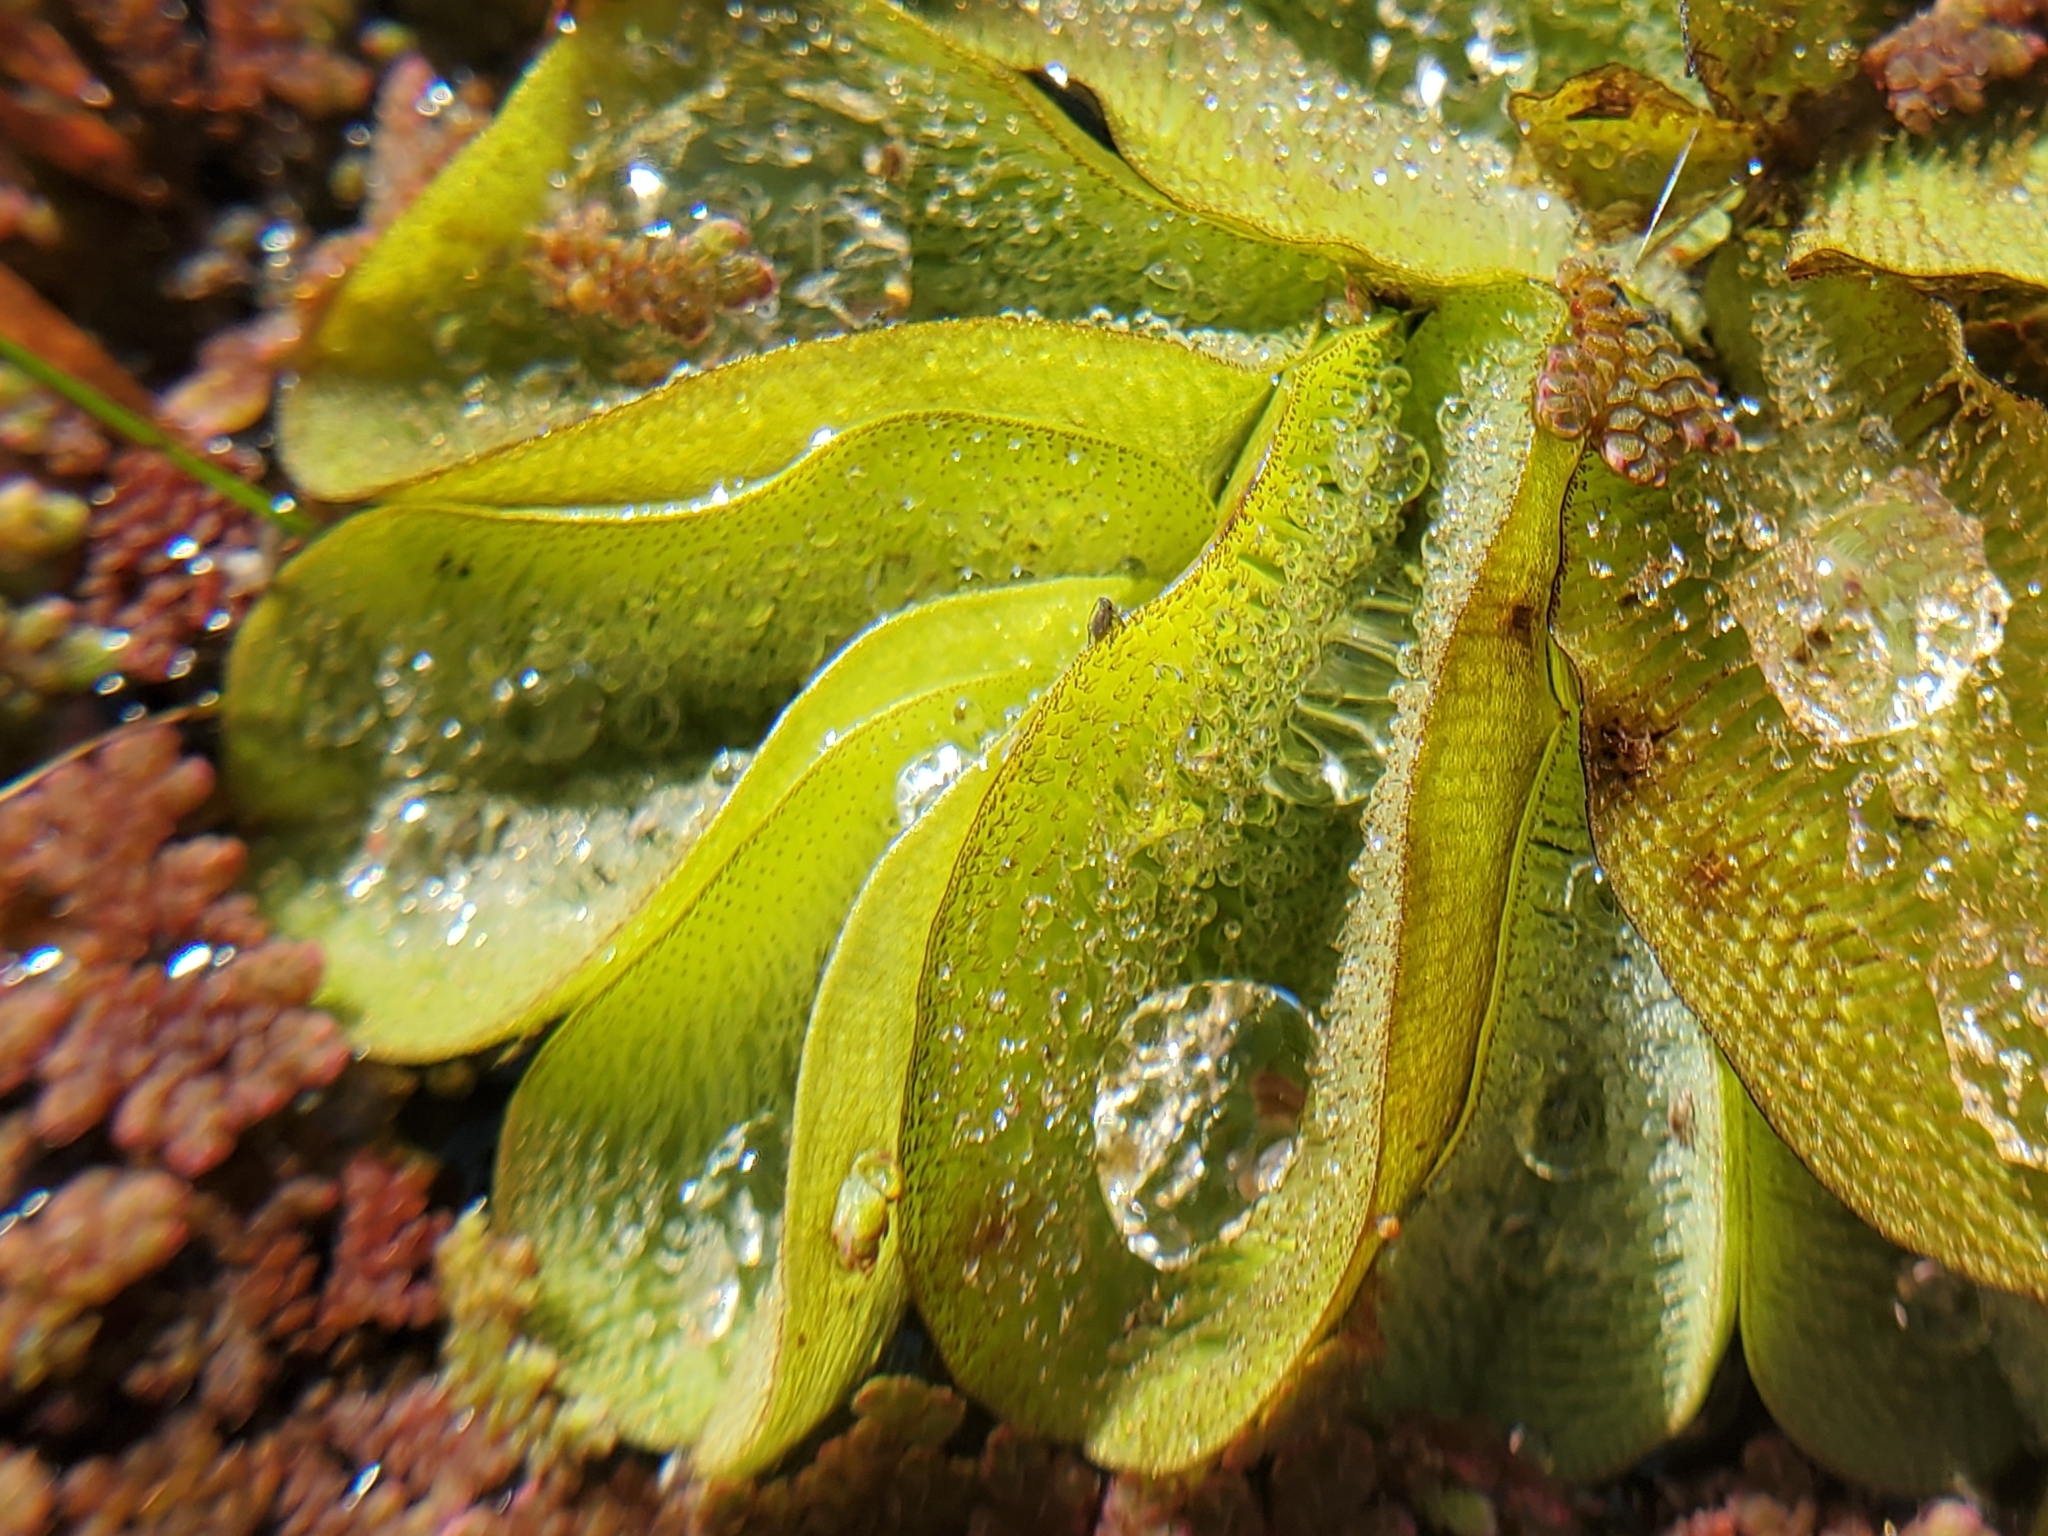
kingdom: Plantae
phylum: Tracheophyta
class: Polypodiopsida
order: Salviniales
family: Salviniaceae
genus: Salvinia
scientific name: Salvinia molesta
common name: Kariba weed
